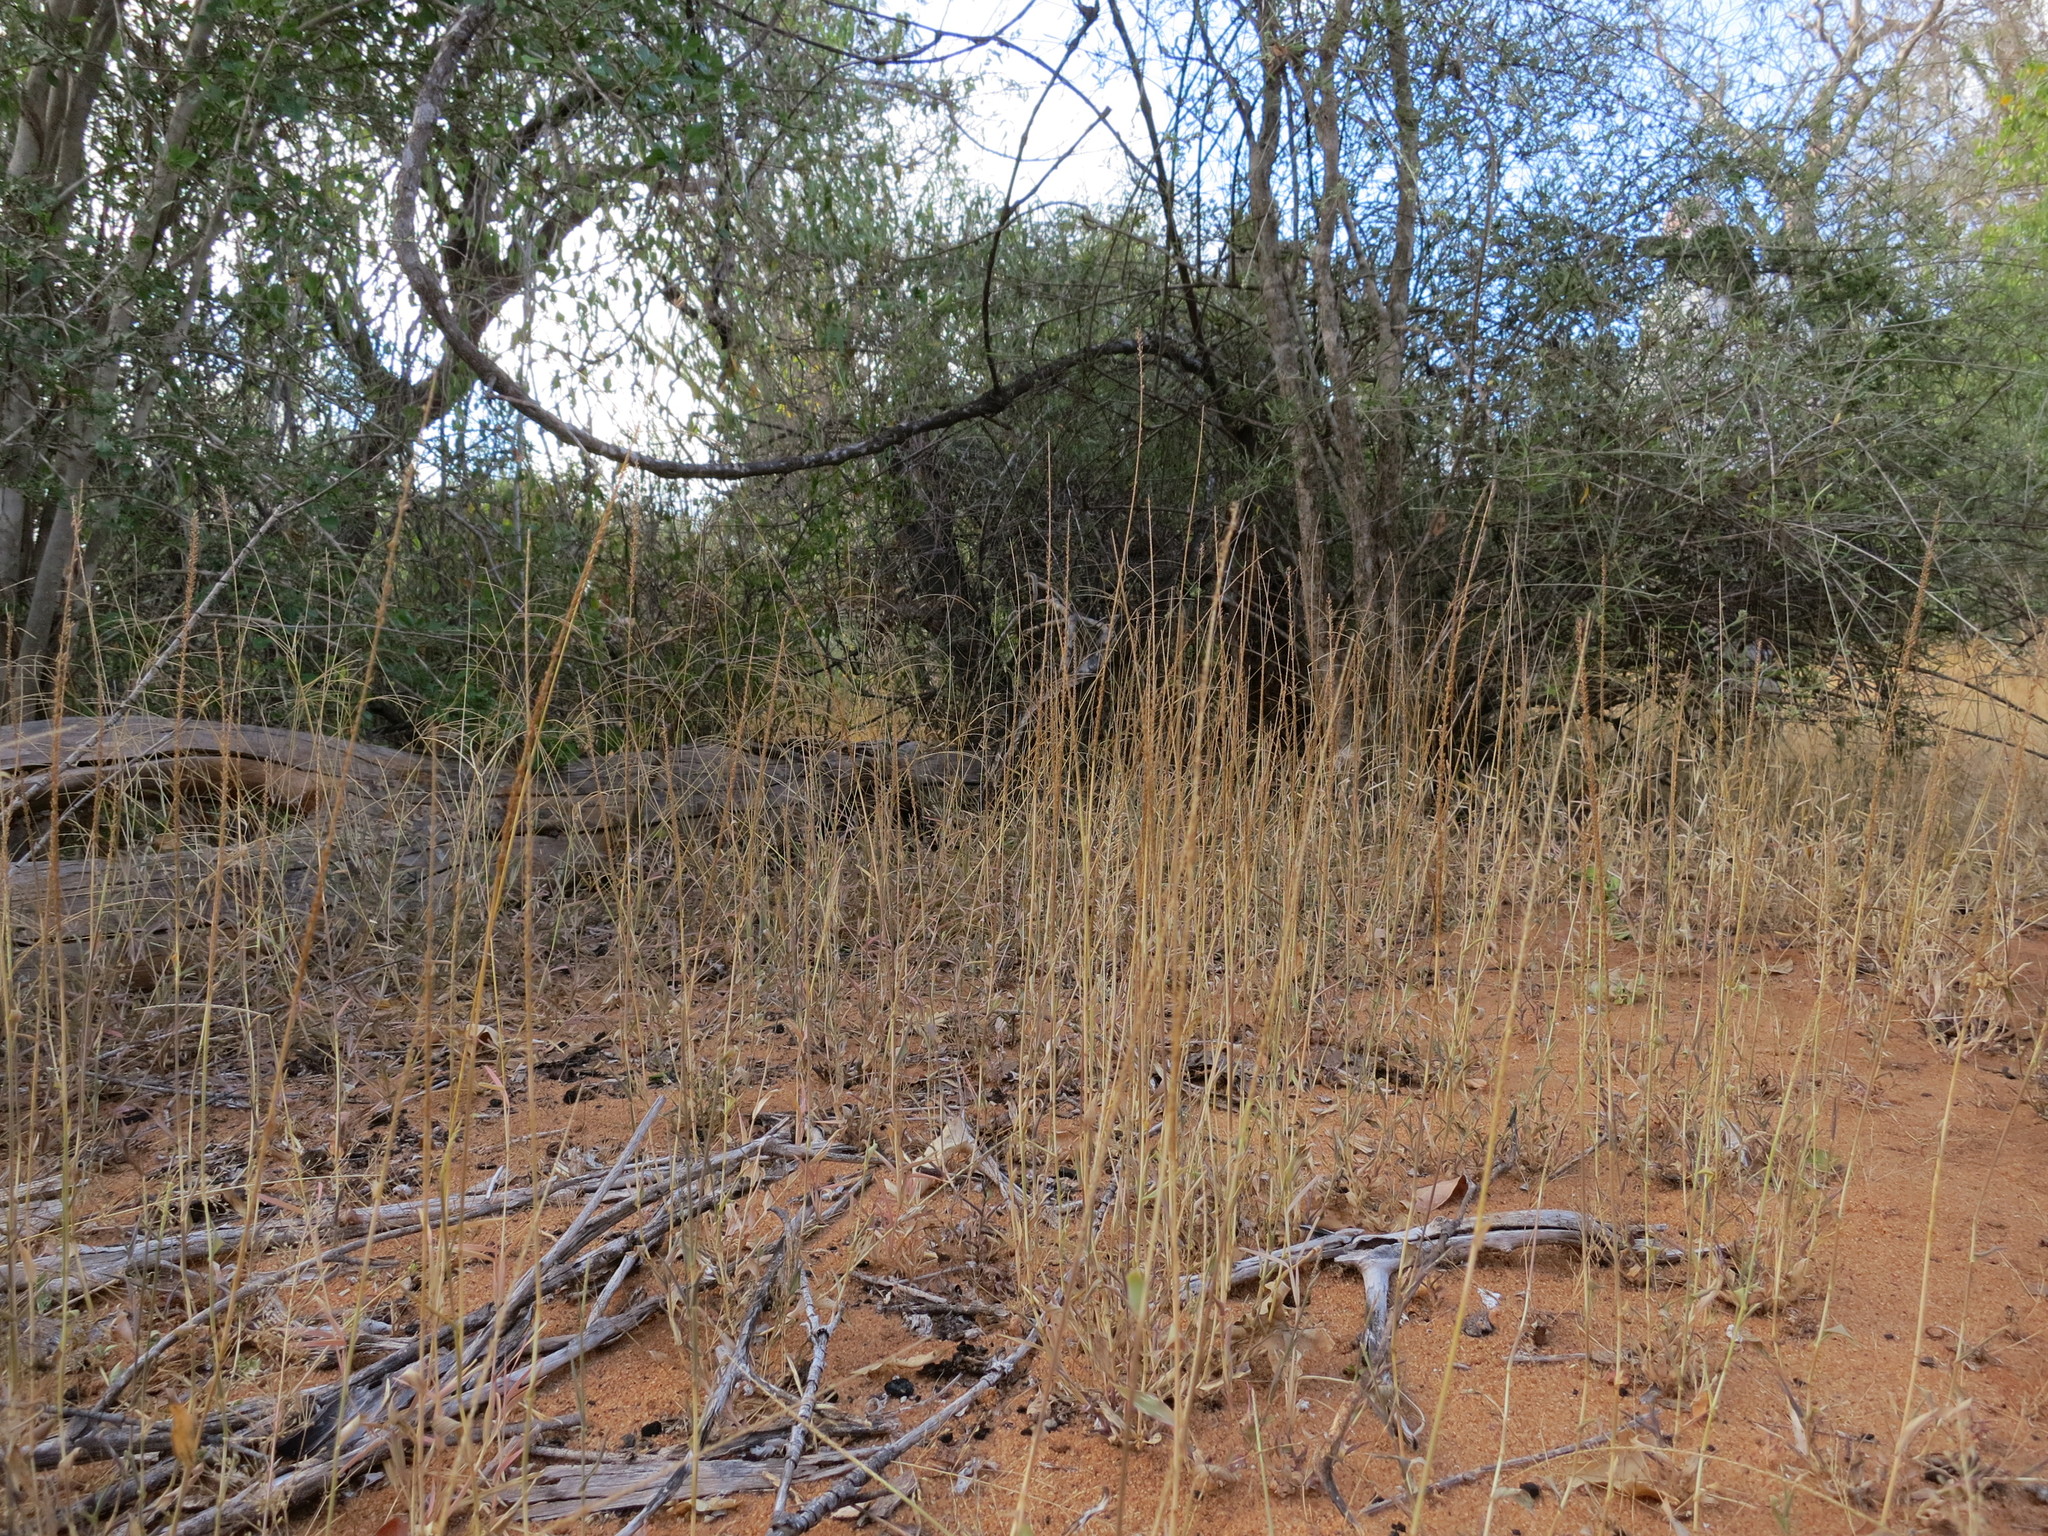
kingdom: Plantae
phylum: Tracheophyta
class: Liliopsida
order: Poales
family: Poaceae
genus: Perotis
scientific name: Perotis arenacea
